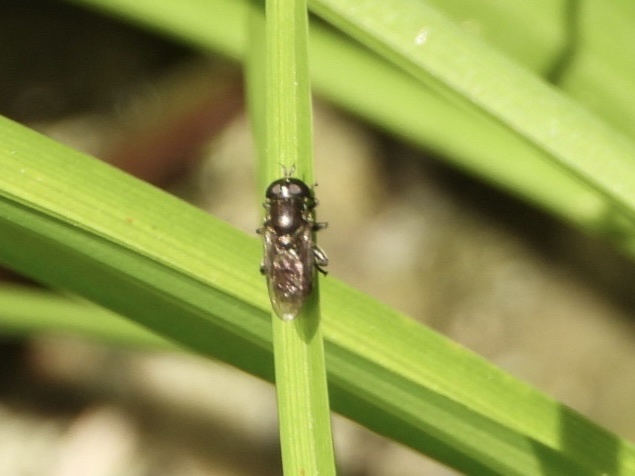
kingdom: Animalia
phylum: Arthropoda
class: Insecta
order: Diptera
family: Syrphidae
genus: Eumerus
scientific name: Eumerus
